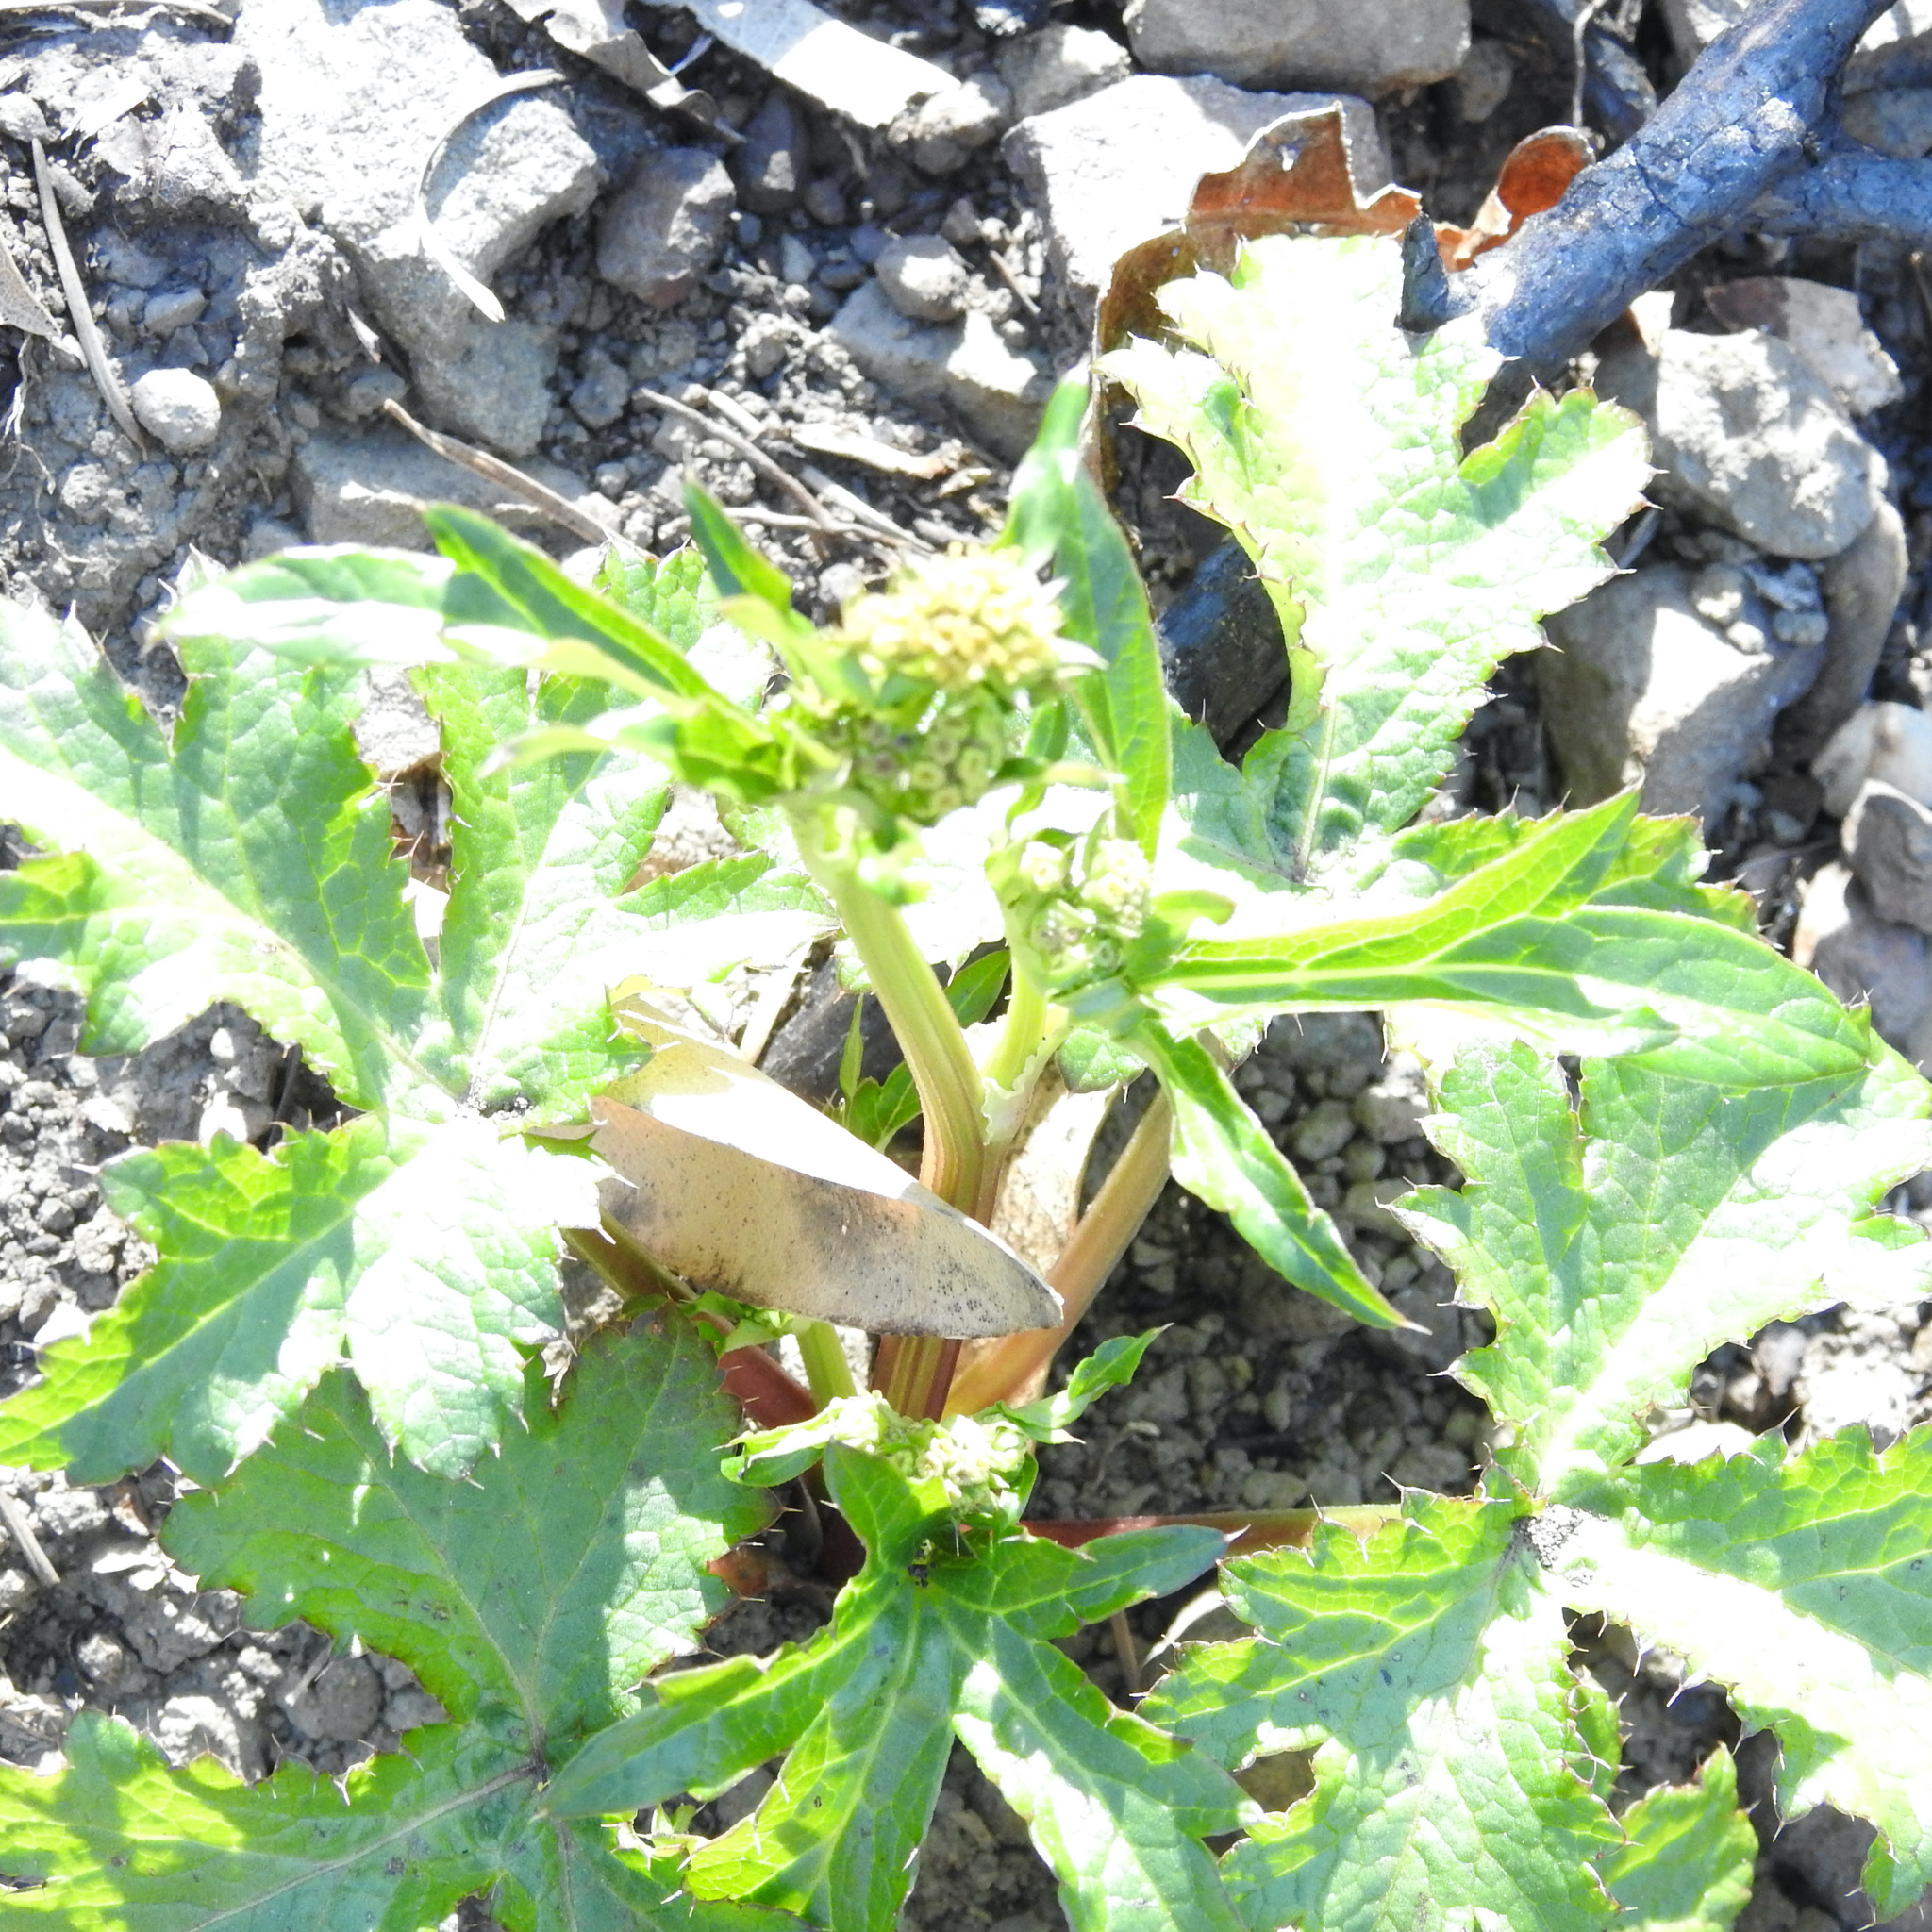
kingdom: Plantae
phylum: Tracheophyta
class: Magnoliopsida
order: Apiales
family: Apiaceae
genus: Sanicula
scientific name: Sanicula crassicaulis
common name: Western snakeroot
